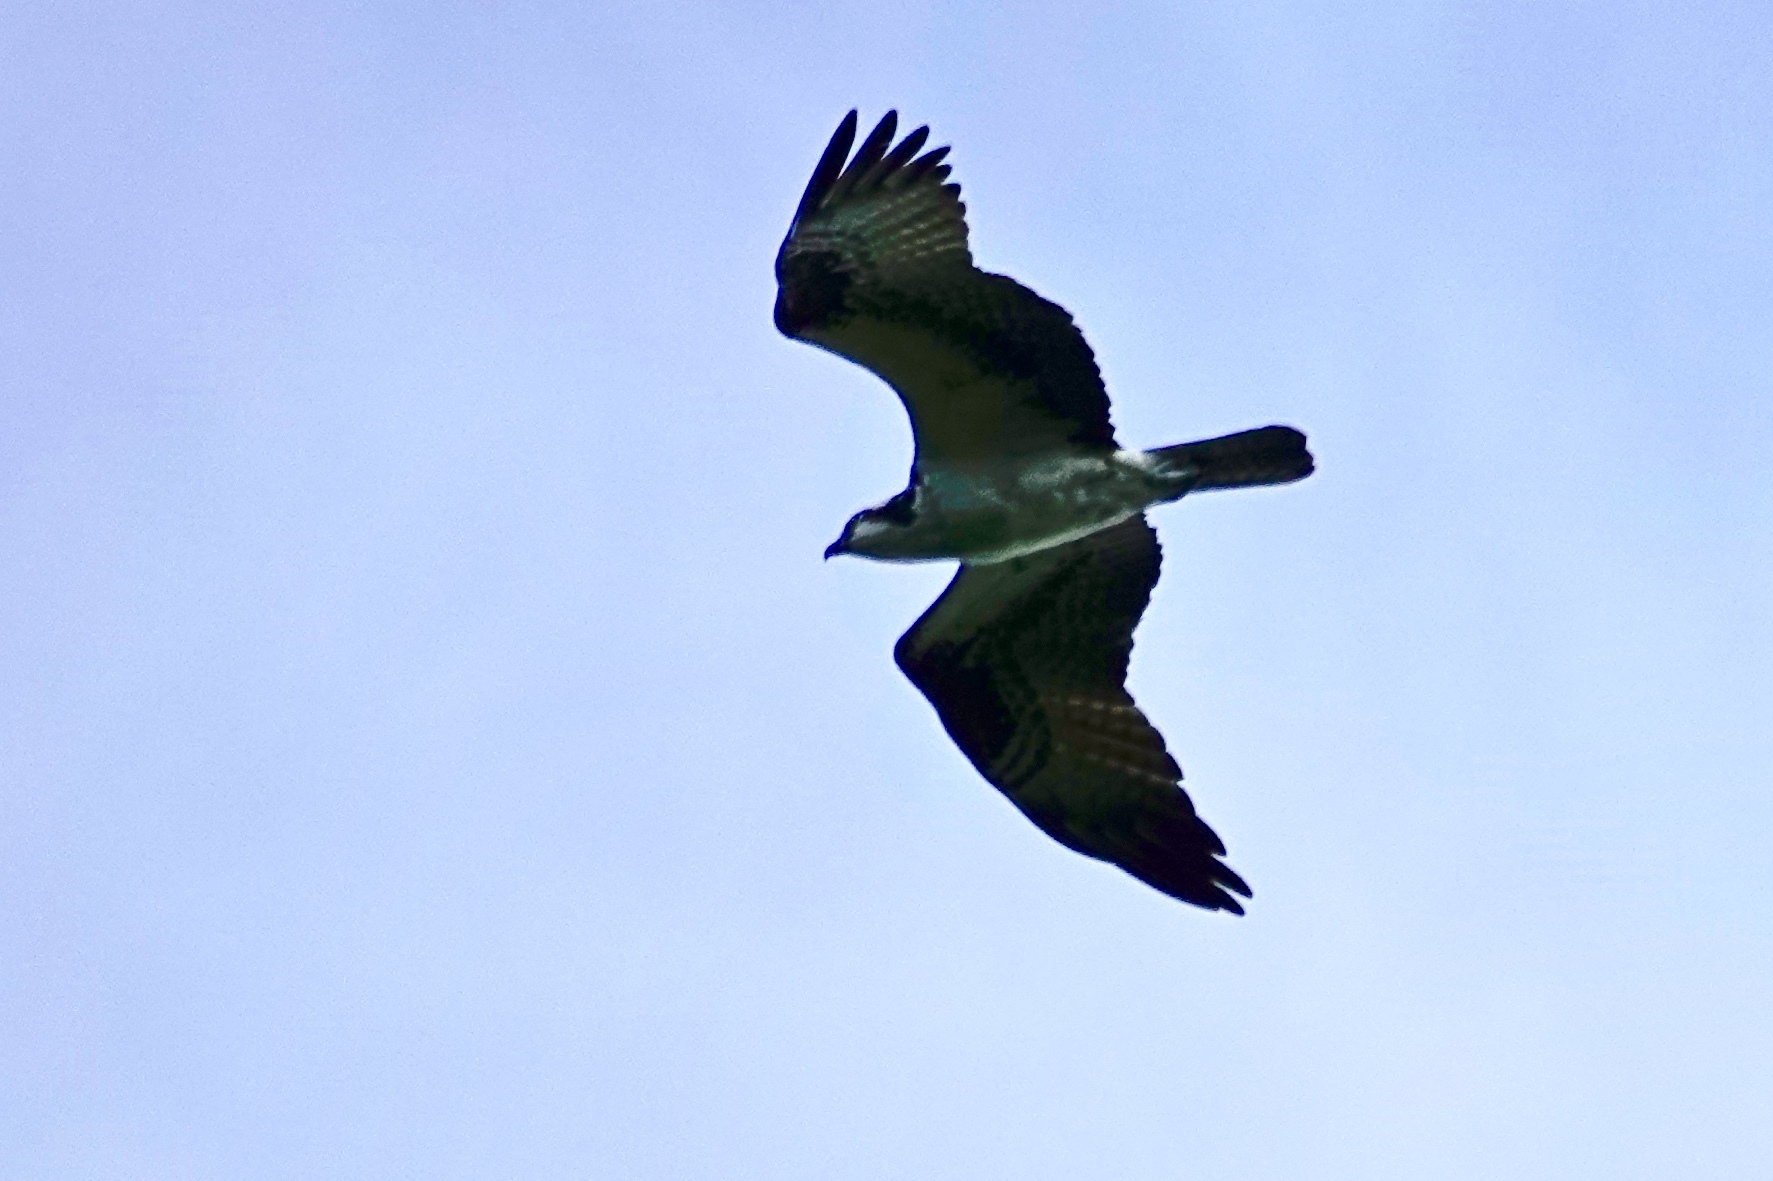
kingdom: Animalia
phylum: Chordata
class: Aves
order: Accipitriformes
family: Pandionidae
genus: Pandion
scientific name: Pandion haliaetus
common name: Osprey
